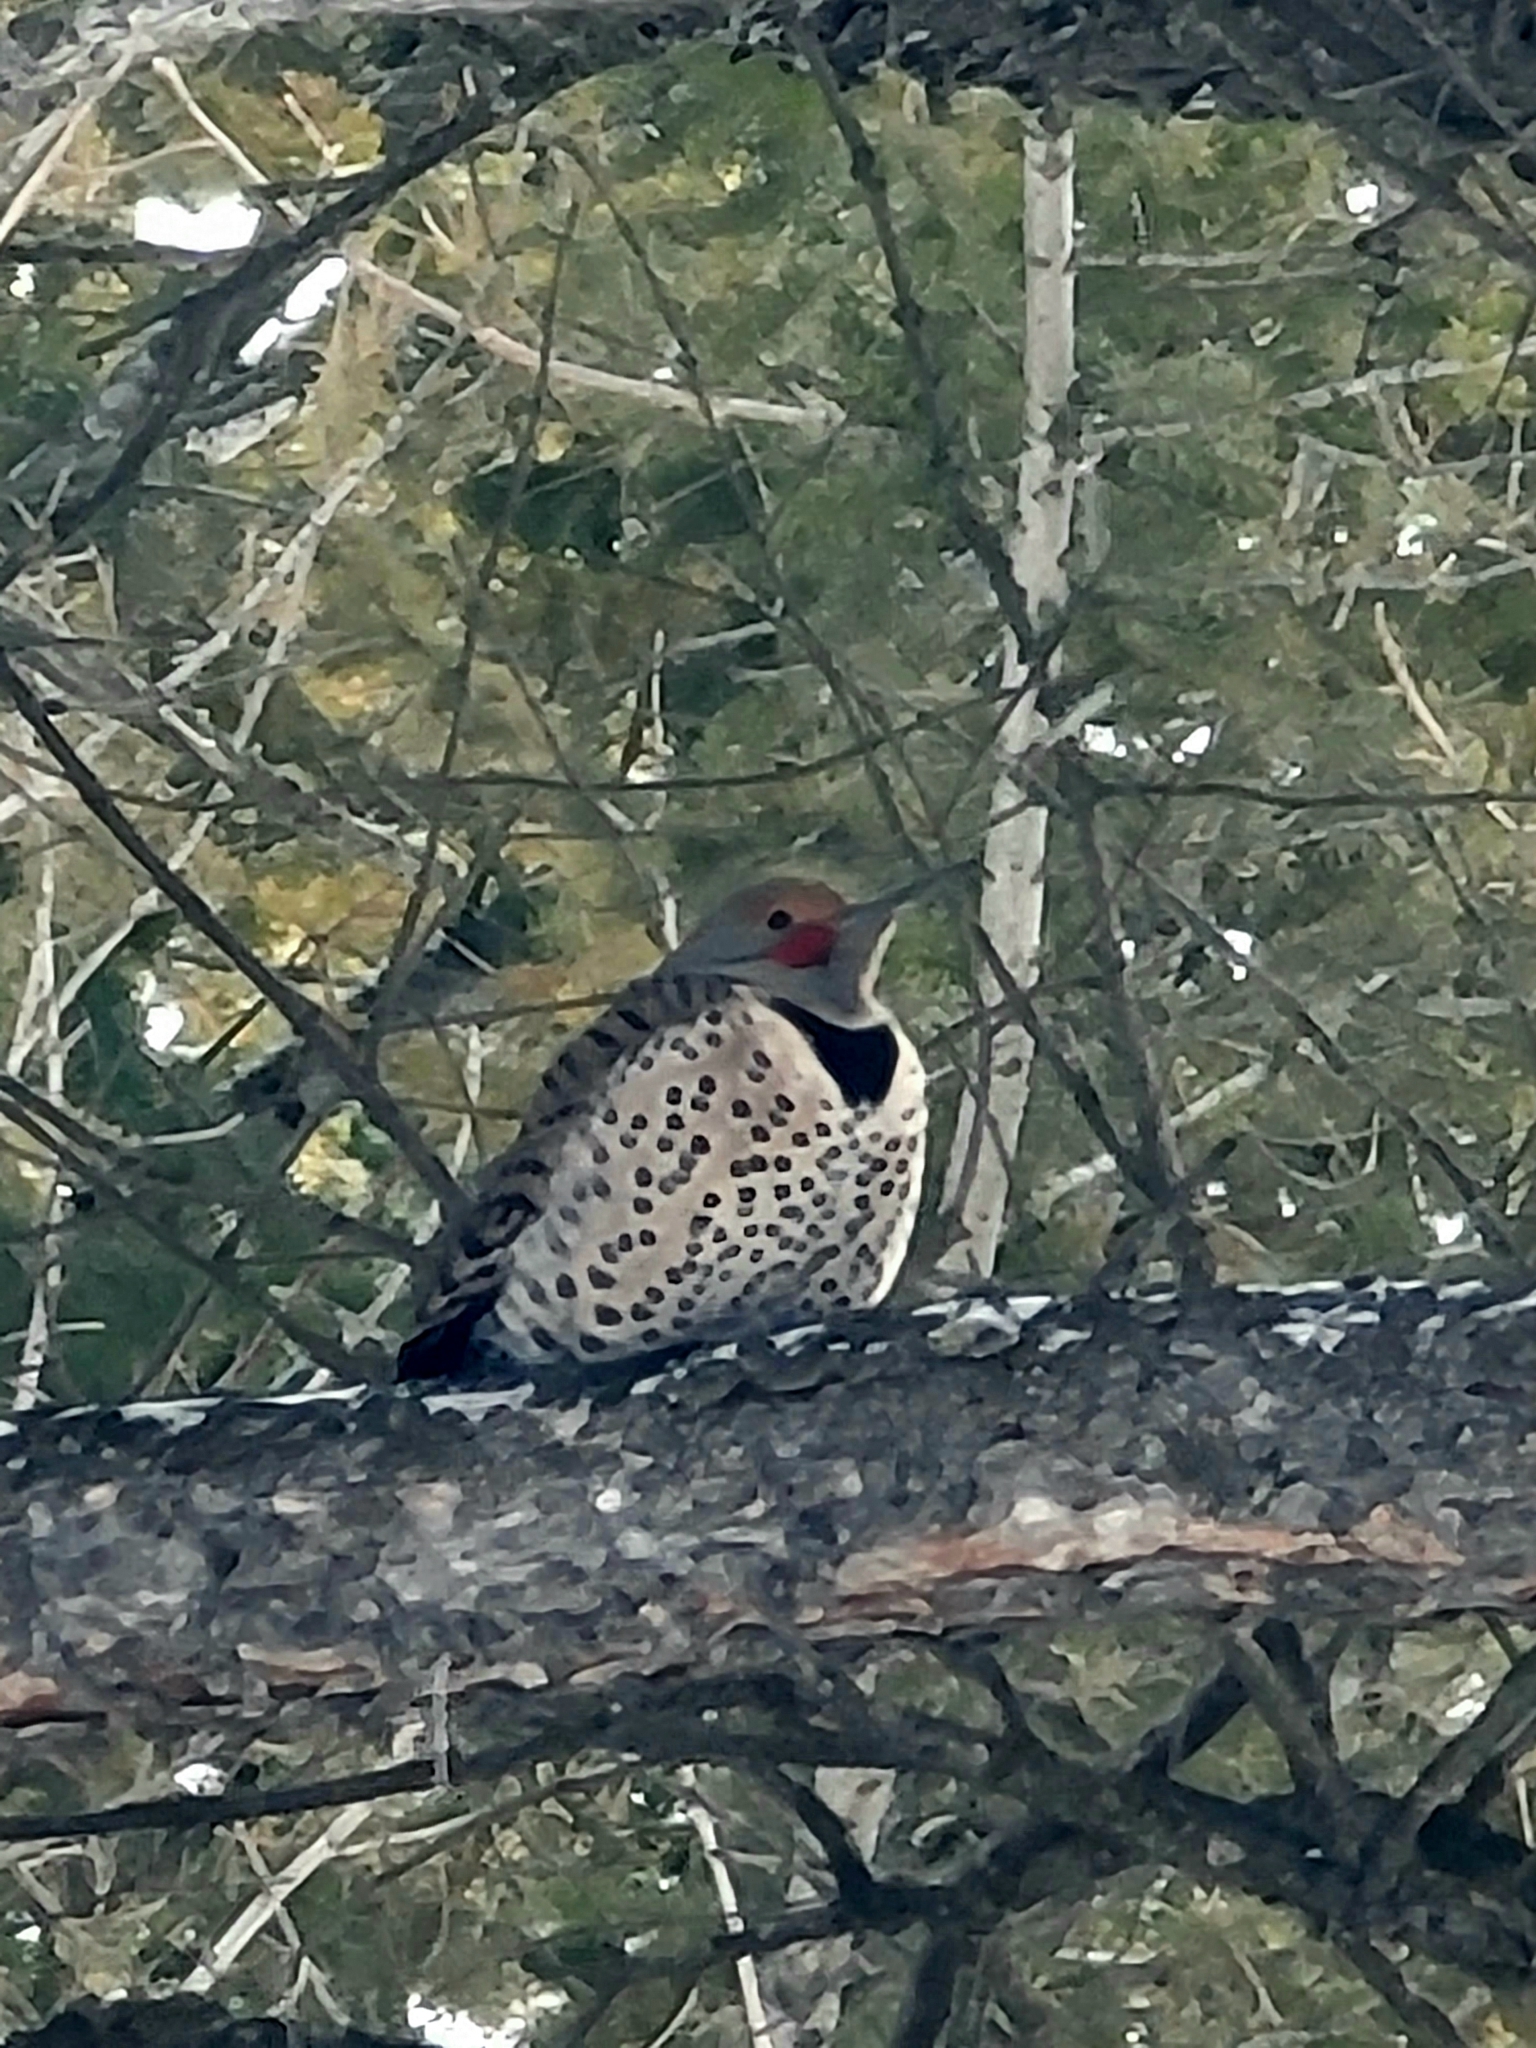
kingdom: Animalia
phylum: Chordata
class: Aves
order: Piciformes
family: Picidae
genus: Colaptes
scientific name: Colaptes auratus
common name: Northern flicker
